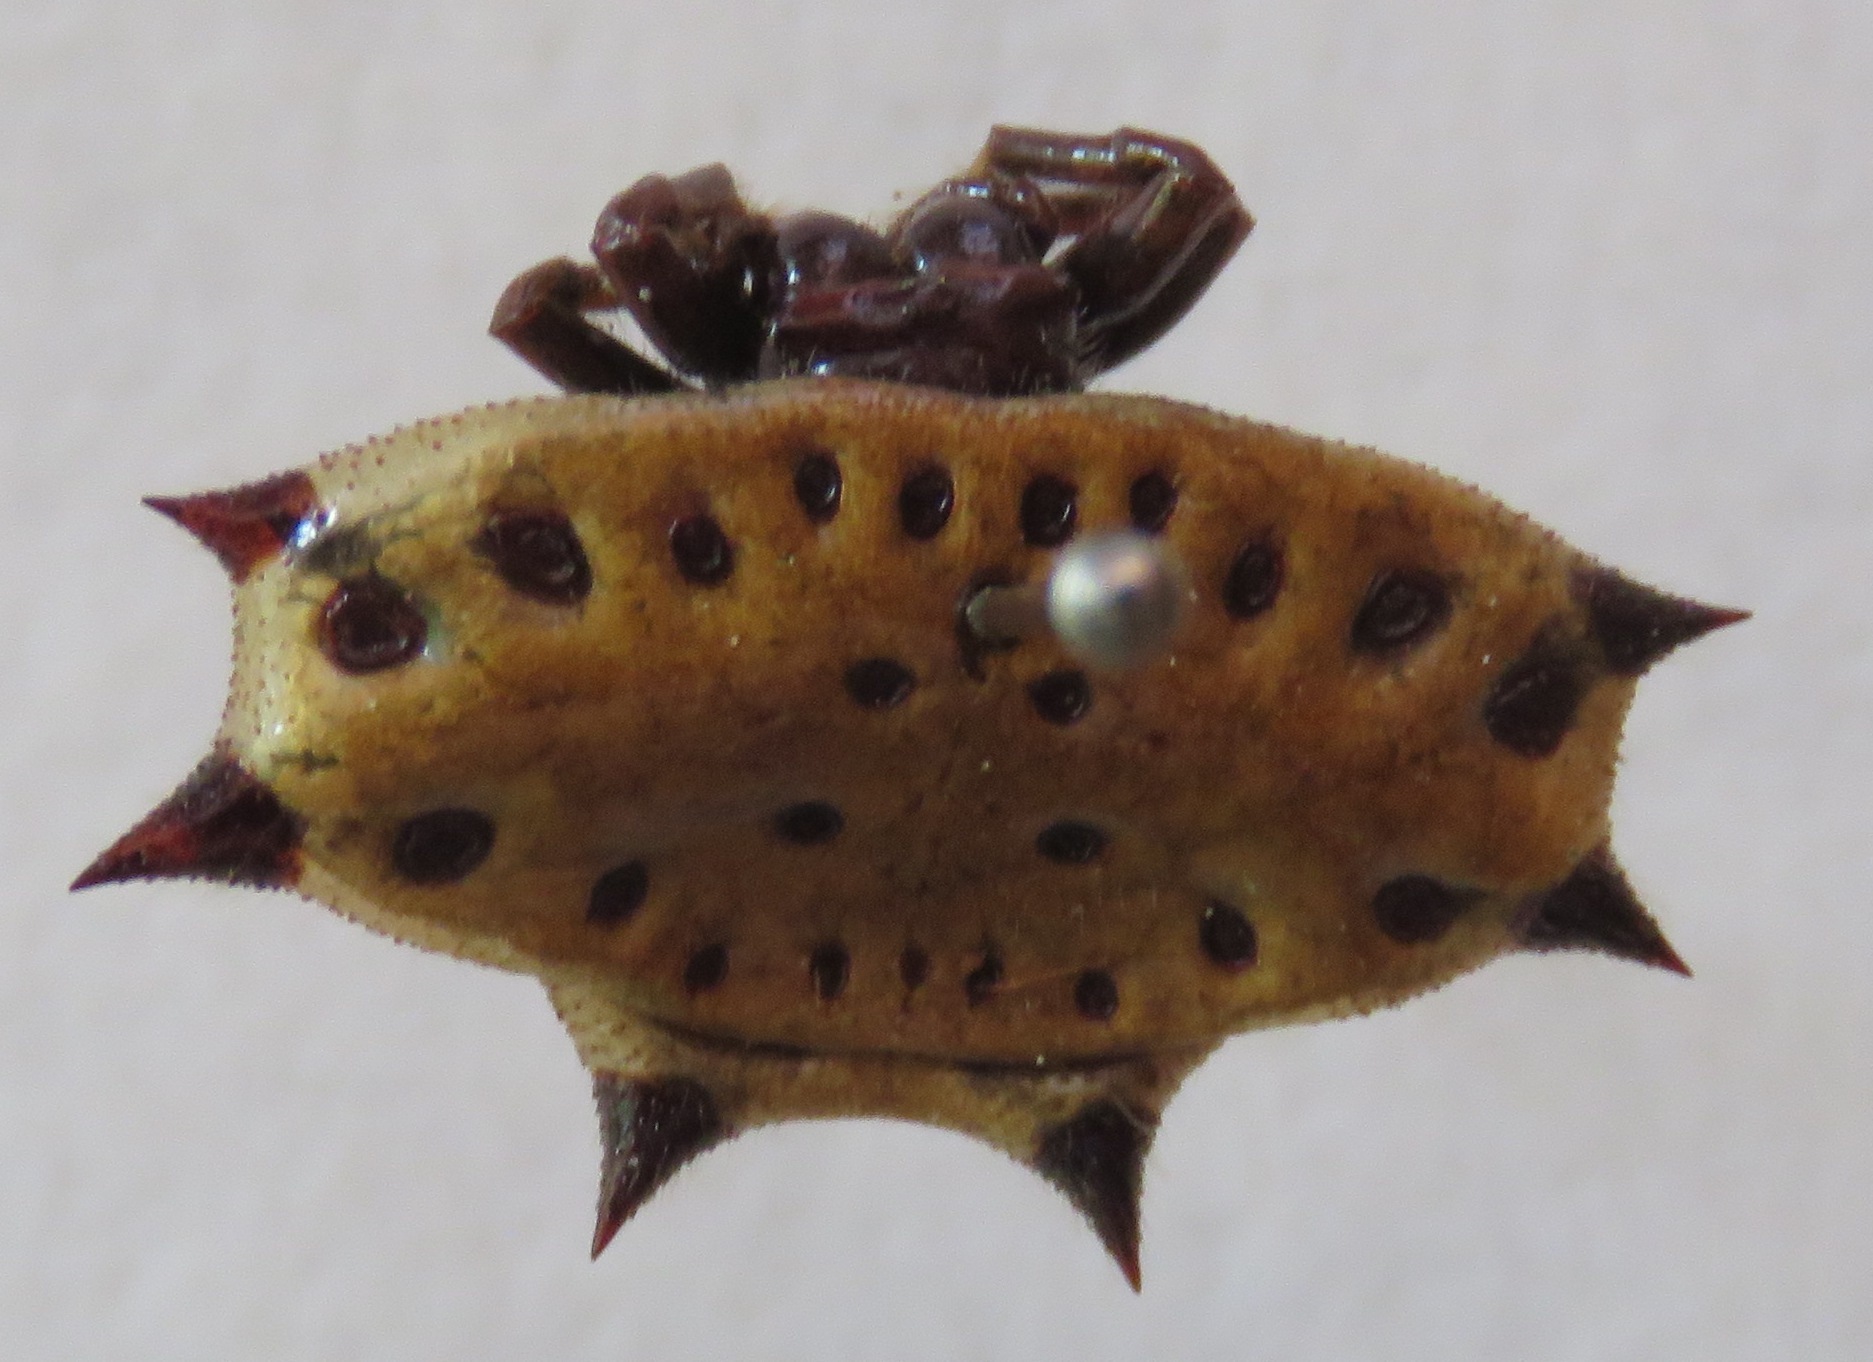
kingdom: Animalia
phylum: Arthropoda
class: Arachnida
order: Araneae
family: Araneidae
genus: Gasteracantha
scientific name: Gasteracantha cancriformis
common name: Orb weavers
